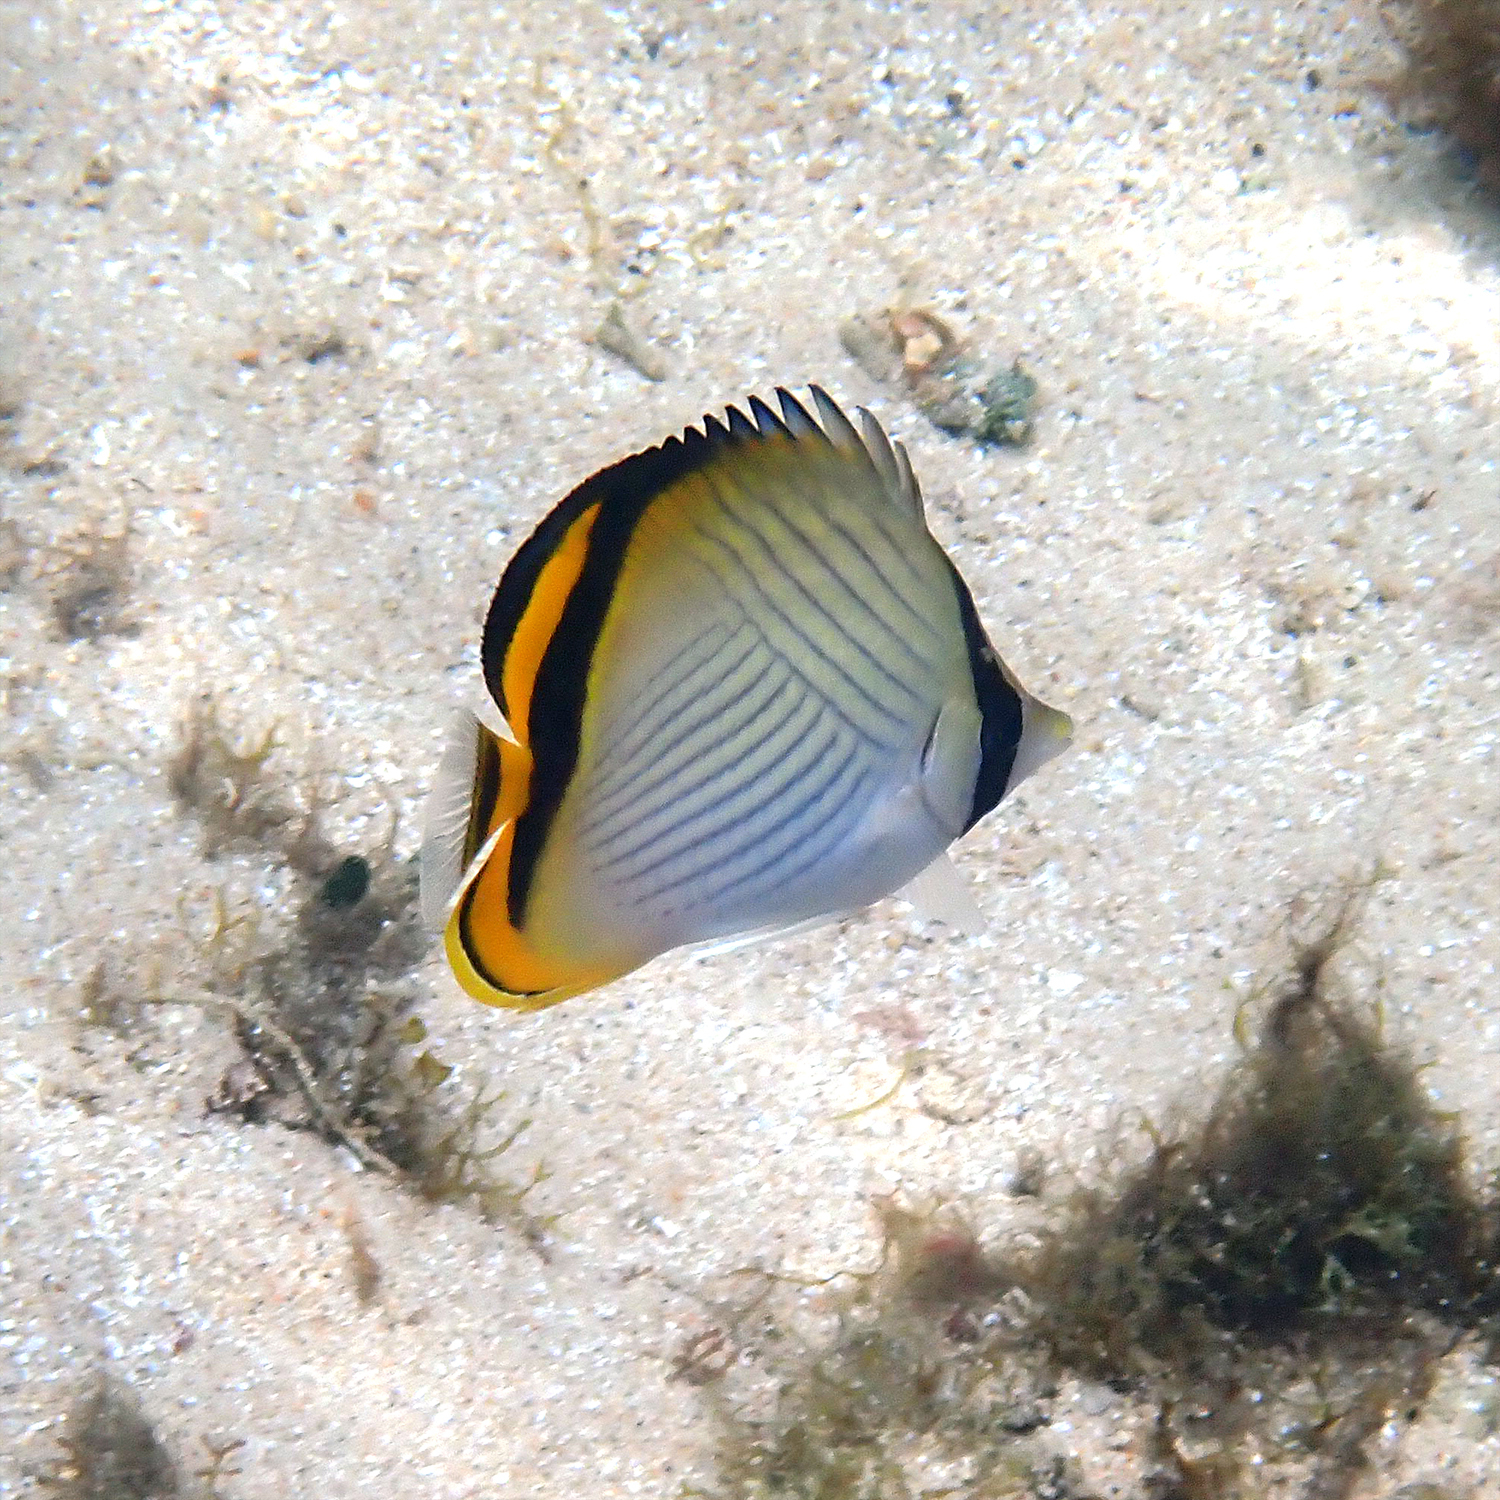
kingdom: Animalia
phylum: Chordata
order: Perciformes
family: Chaetodontidae
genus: Chaetodon
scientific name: Chaetodon vagabundus
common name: Vagabond butterflyfish
